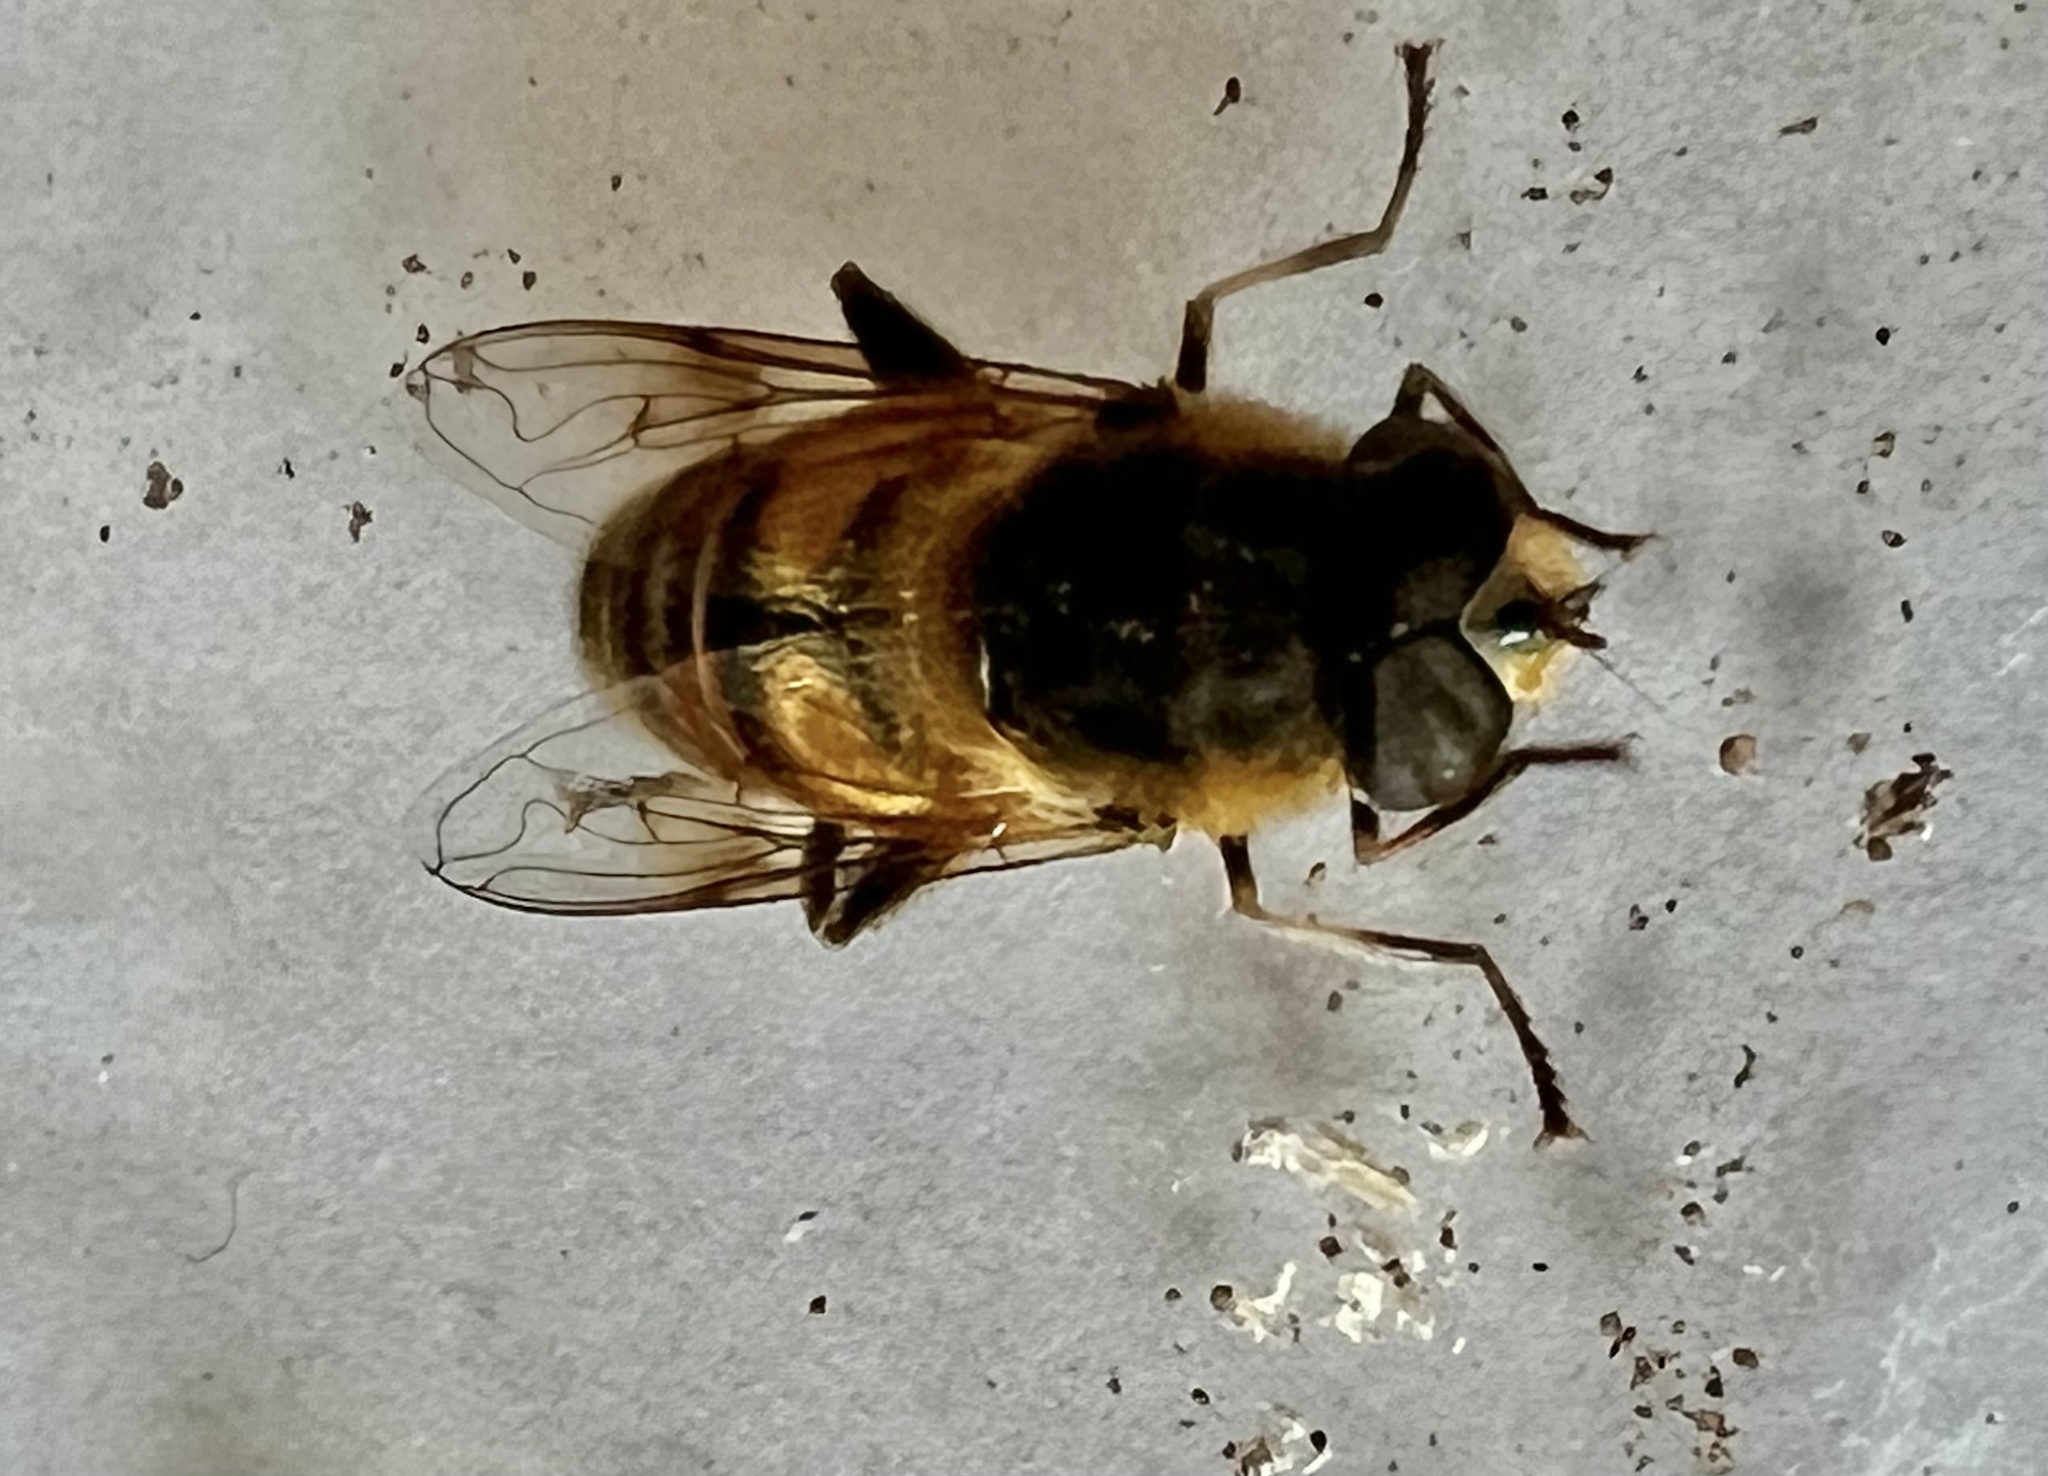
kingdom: Animalia
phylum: Arthropoda
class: Insecta
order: Diptera
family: Syrphidae
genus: Eristalis
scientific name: Eristalis tenax
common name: Drone fly
